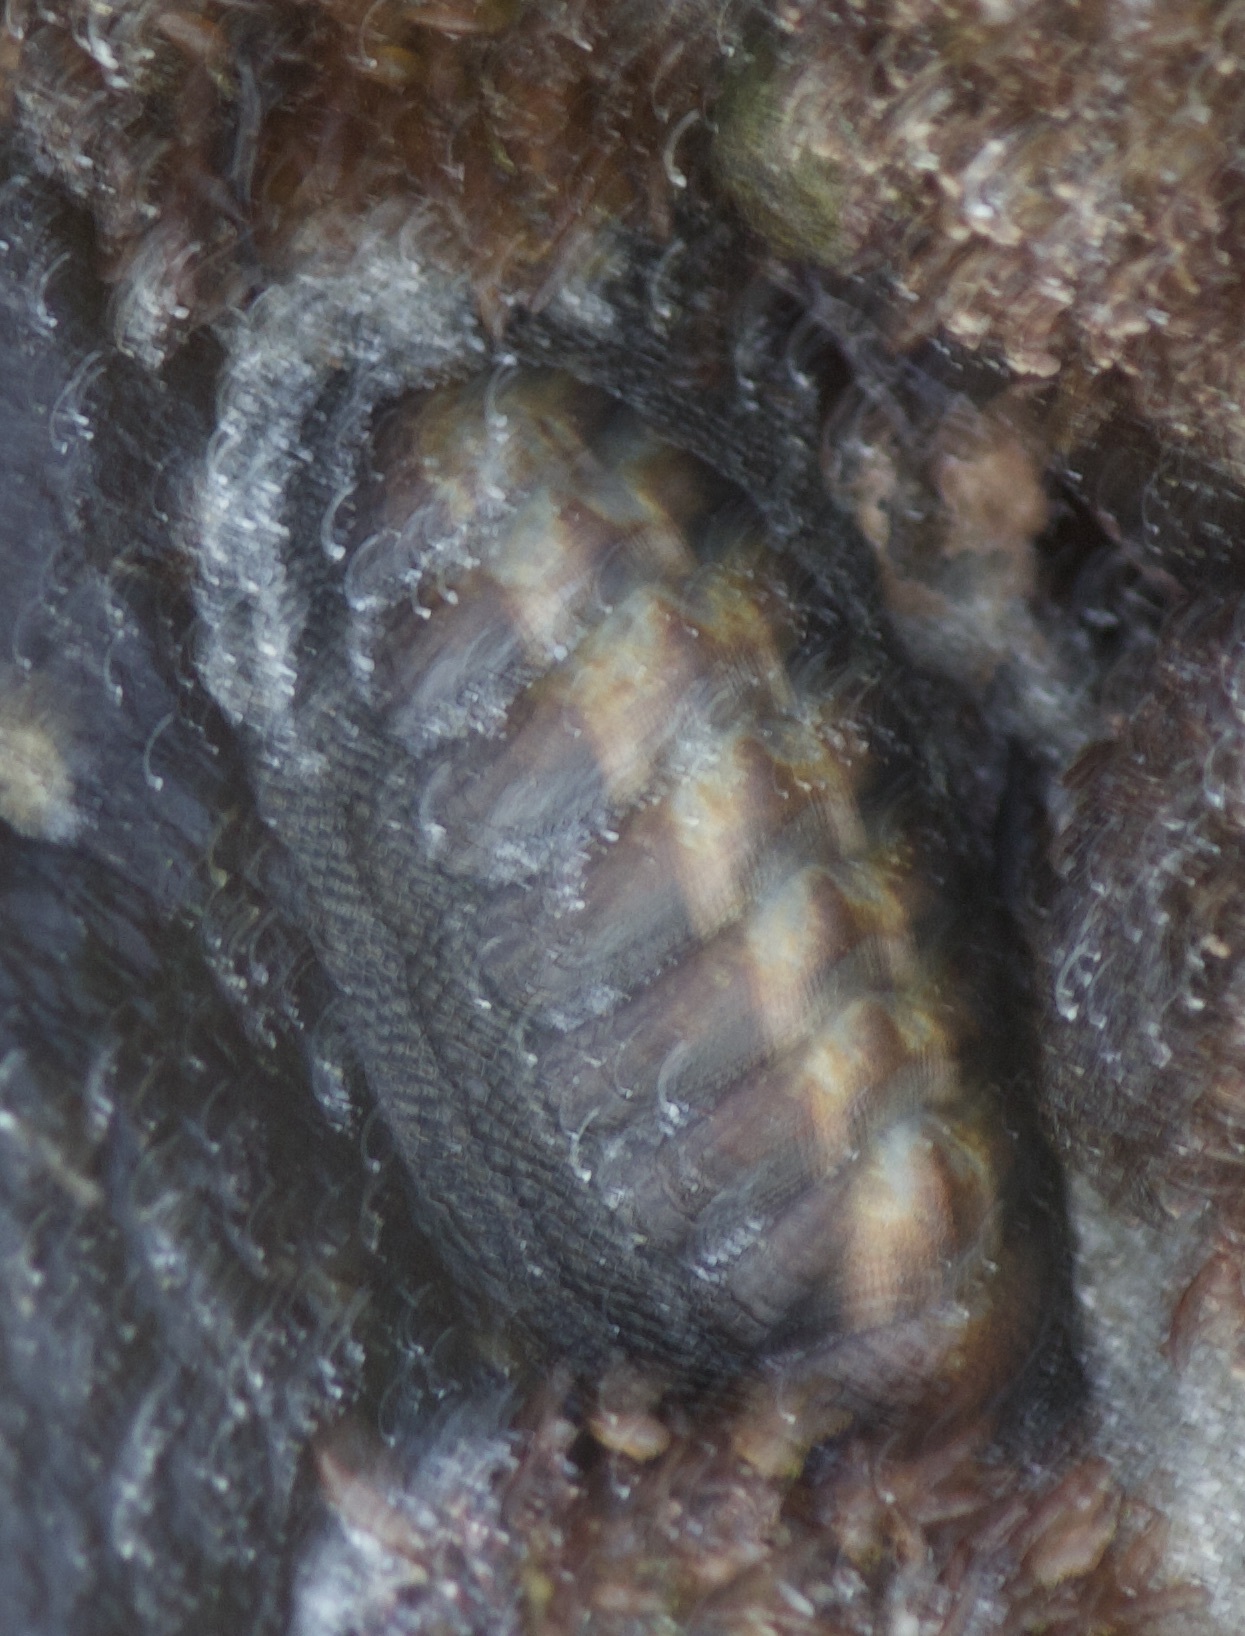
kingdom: Animalia
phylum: Mollusca
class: Polyplacophora
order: Chitonida
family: Chitonidae
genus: Chiton
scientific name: Chiton granosus
